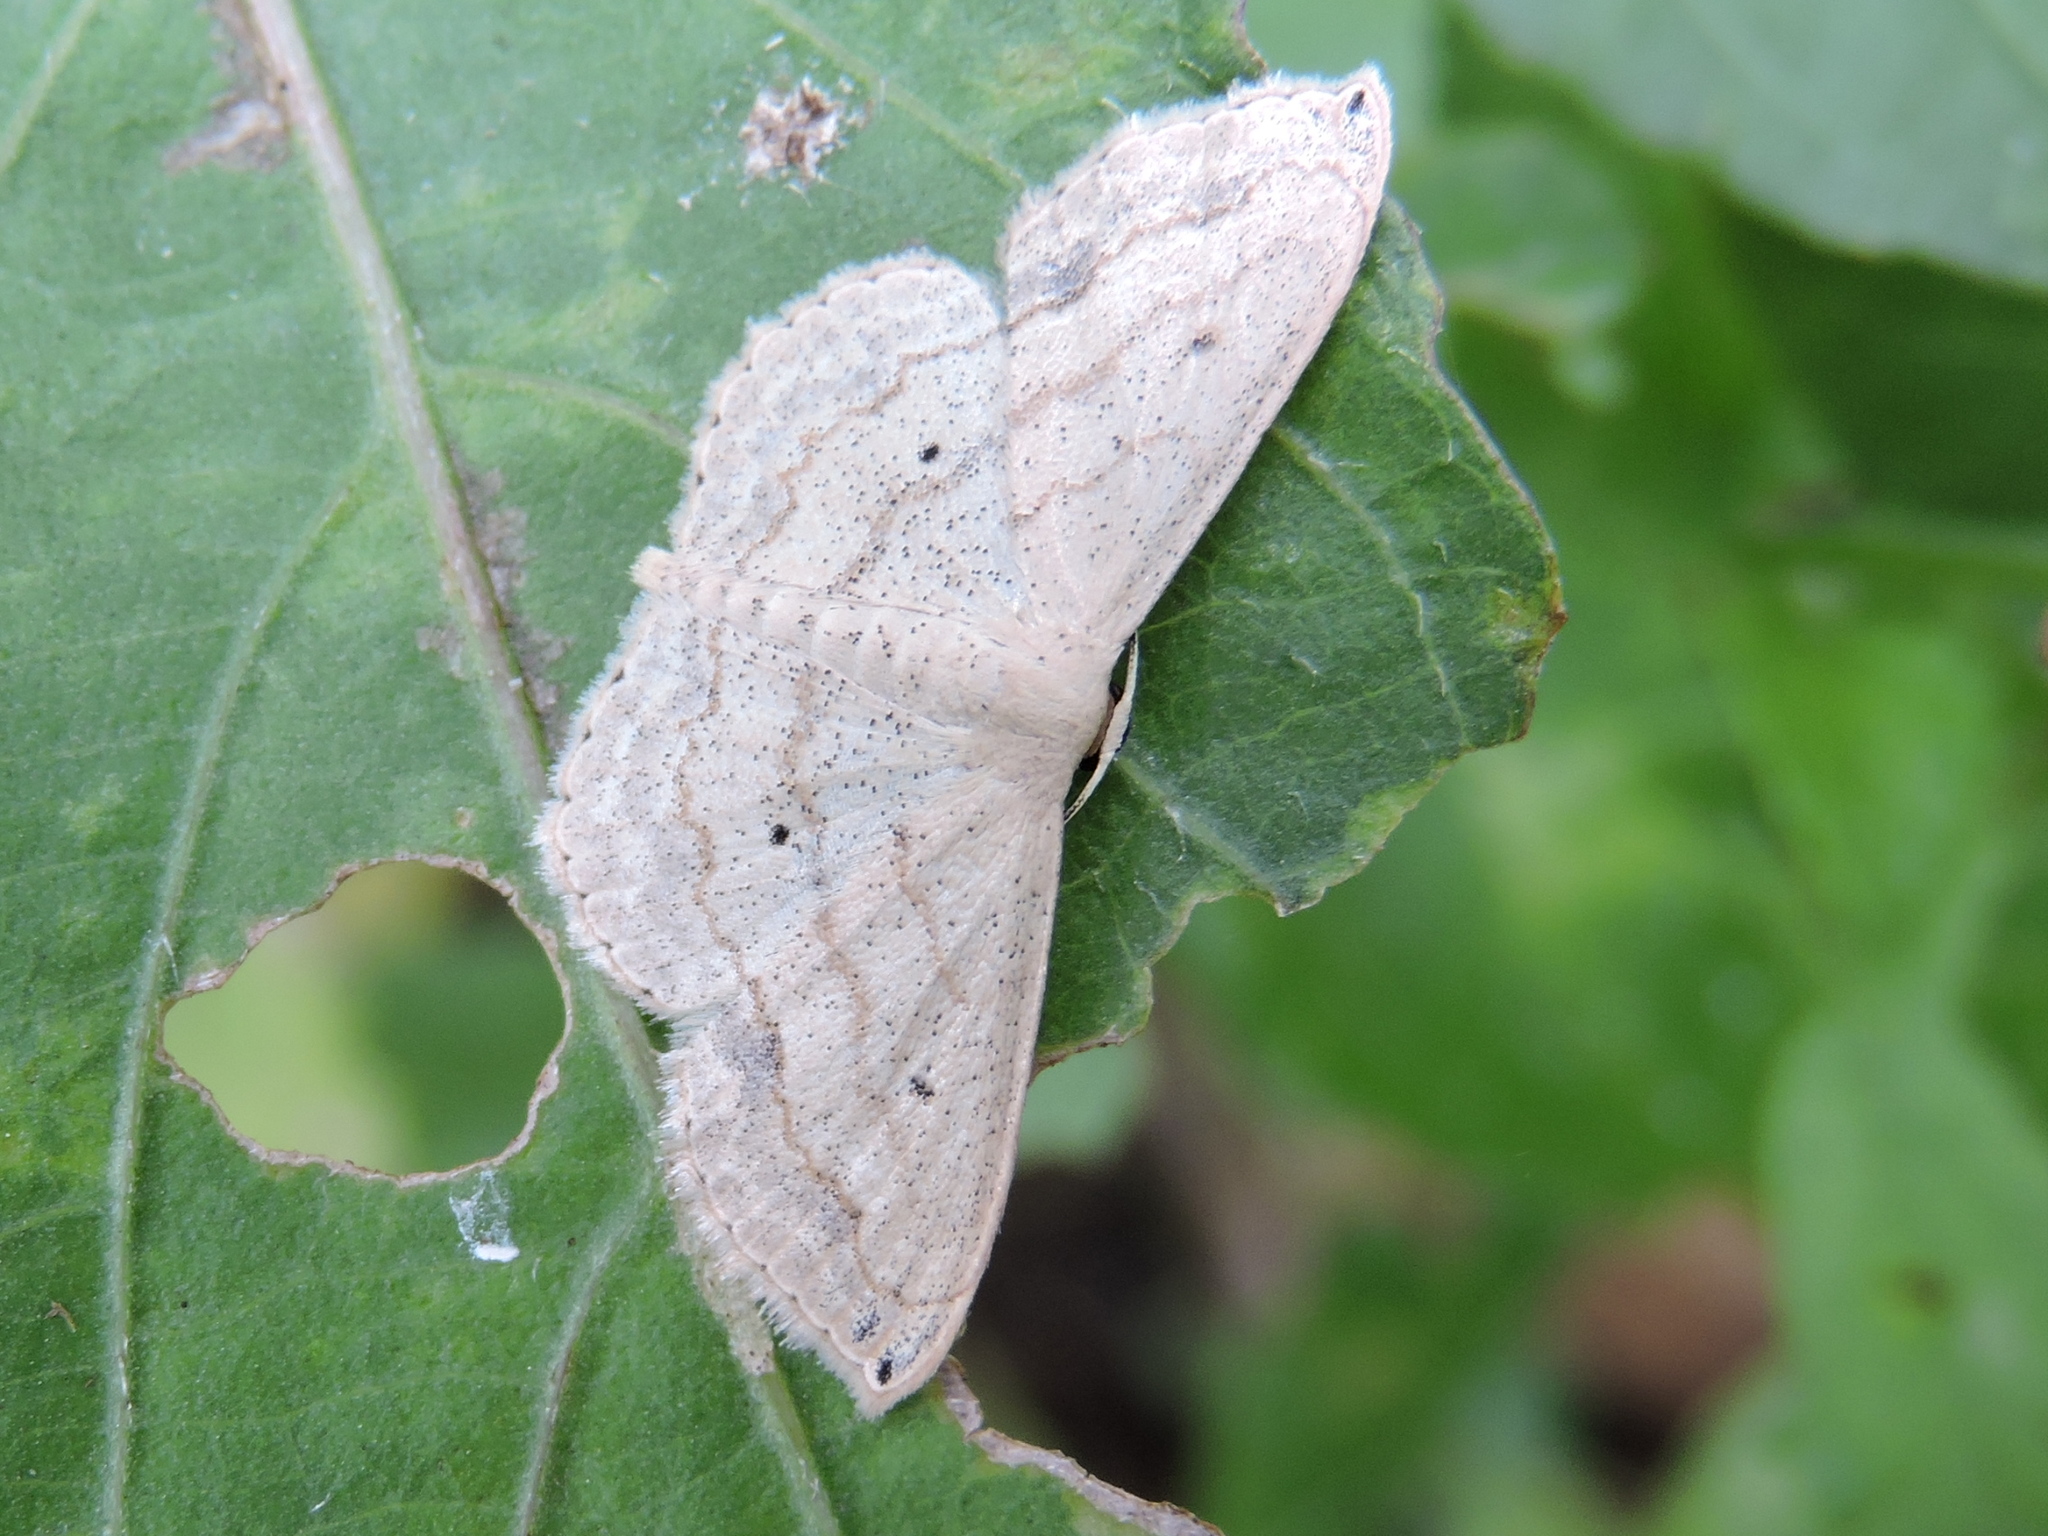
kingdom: Animalia
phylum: Arthropoda
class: Insecta
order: Lepidoptera
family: Geometridae
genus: Scopula
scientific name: Scopula umbilicata
